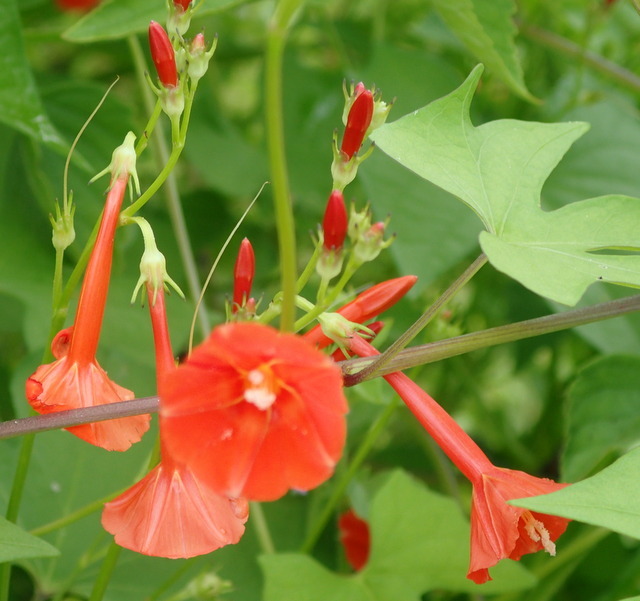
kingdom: Plantae
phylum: Tracheophyta
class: Magnoliopsida
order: Solanales
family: Convolvulaceae
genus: Ipomoea
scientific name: Ipomoea hederifolia
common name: Ivy-leaf morning-glory
